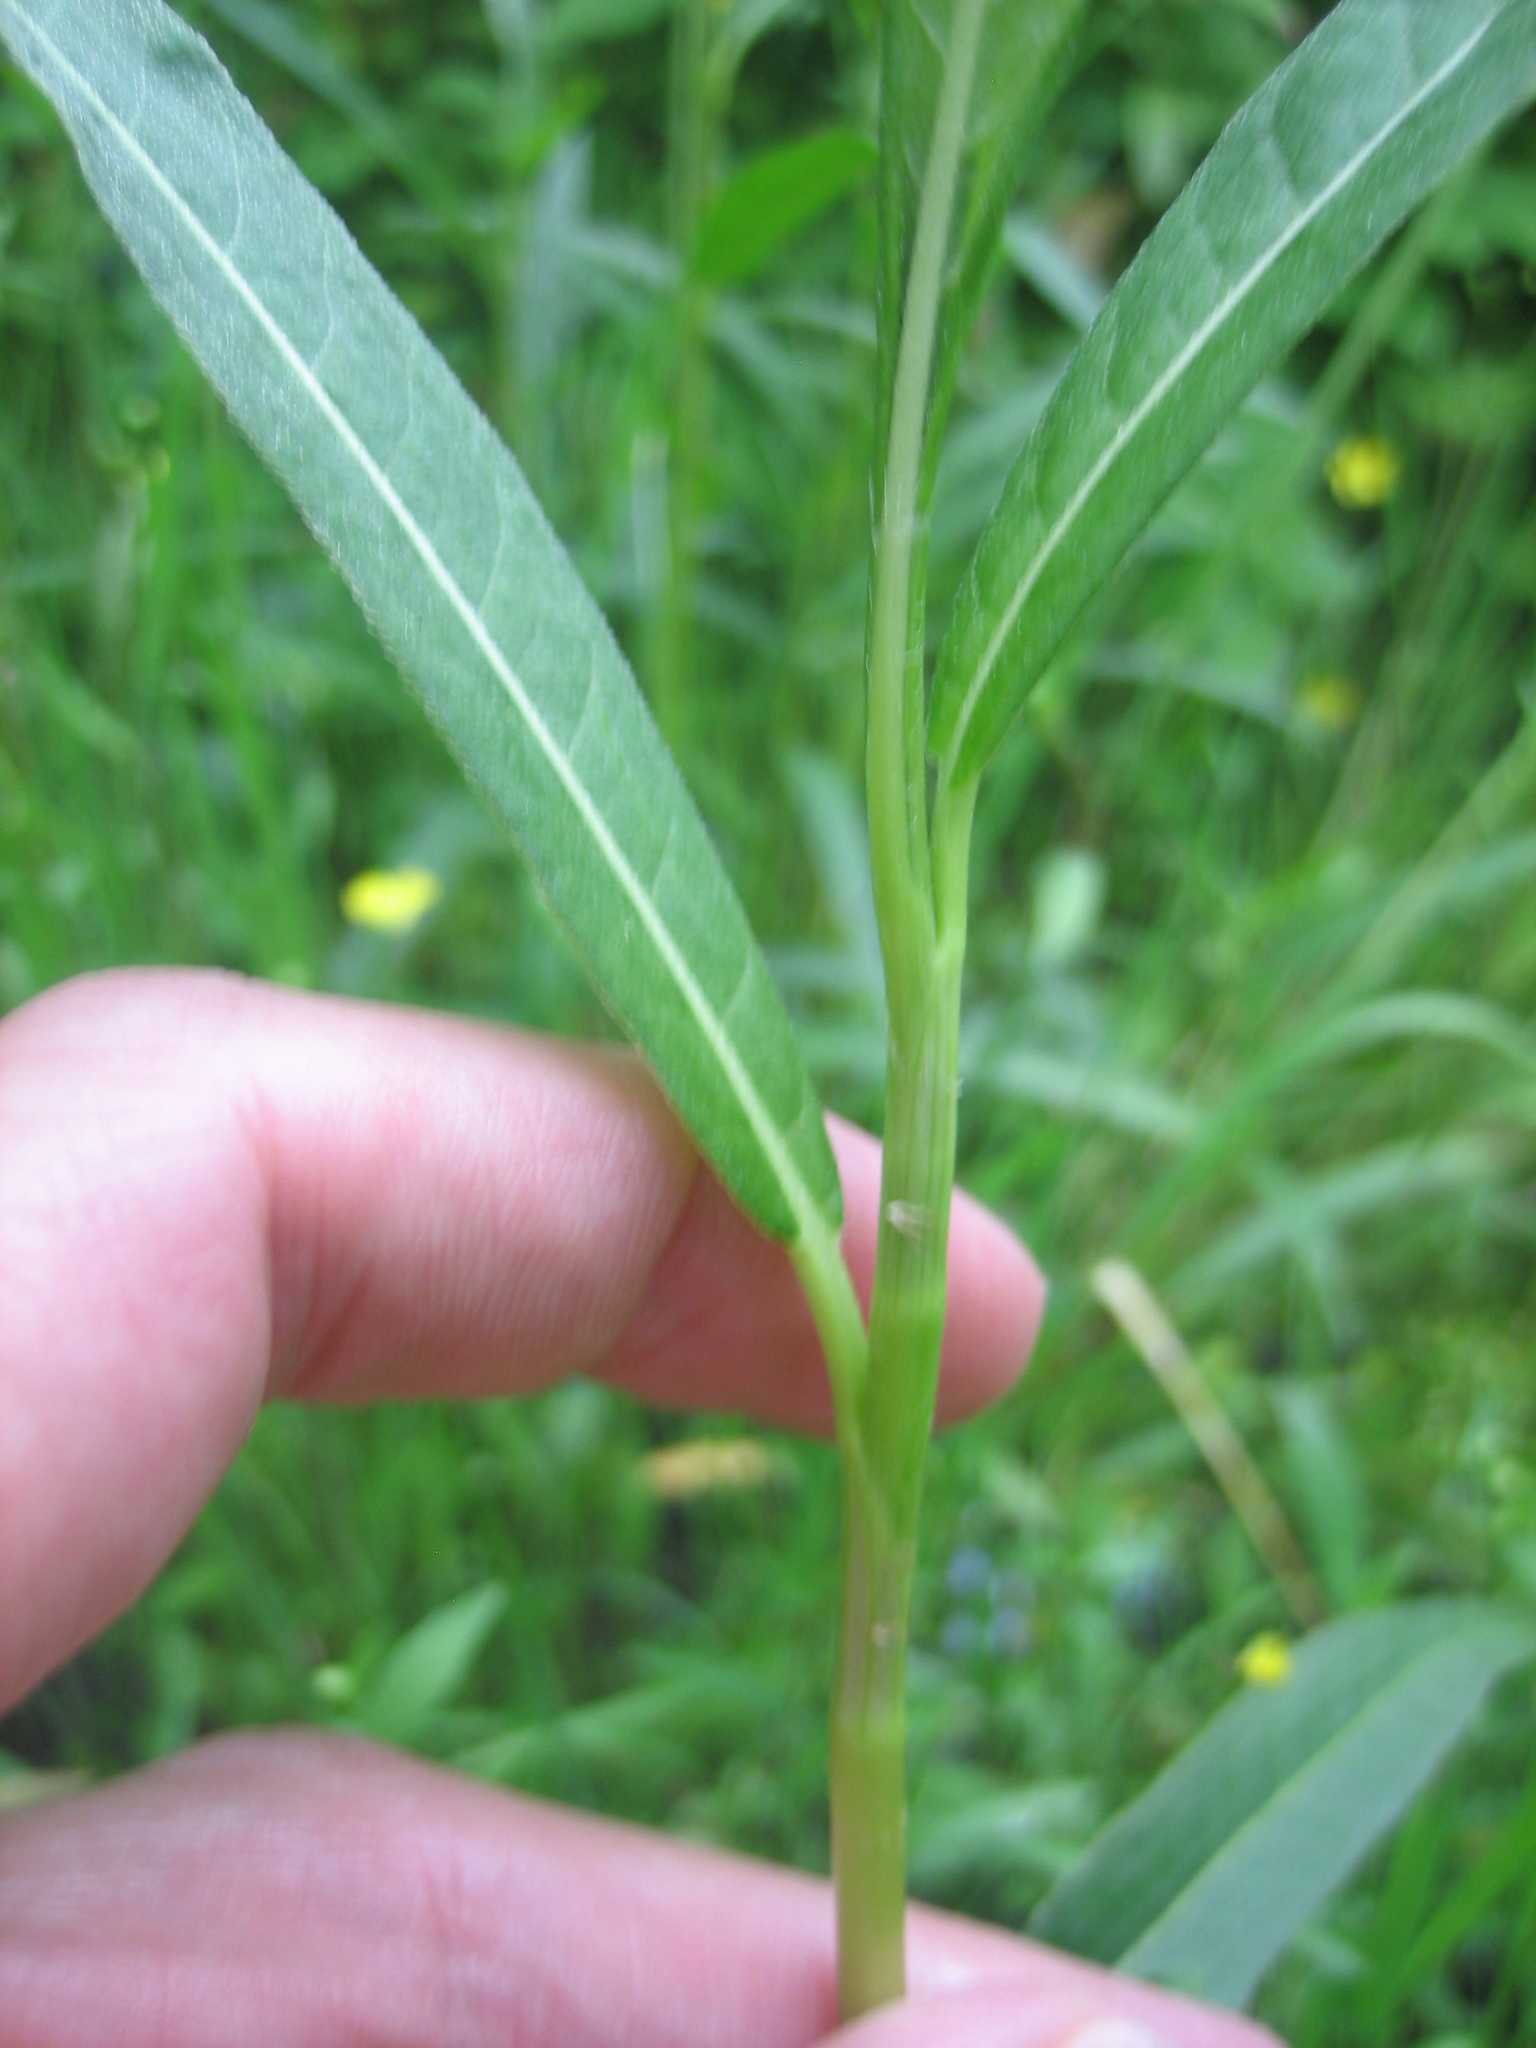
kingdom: Plantae
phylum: Tracheophyta
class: Magnoliopsida
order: Caryophyllales
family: Polygonaceae
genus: Persicaria
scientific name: Persicaria amphibia
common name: Amphibious bistort
